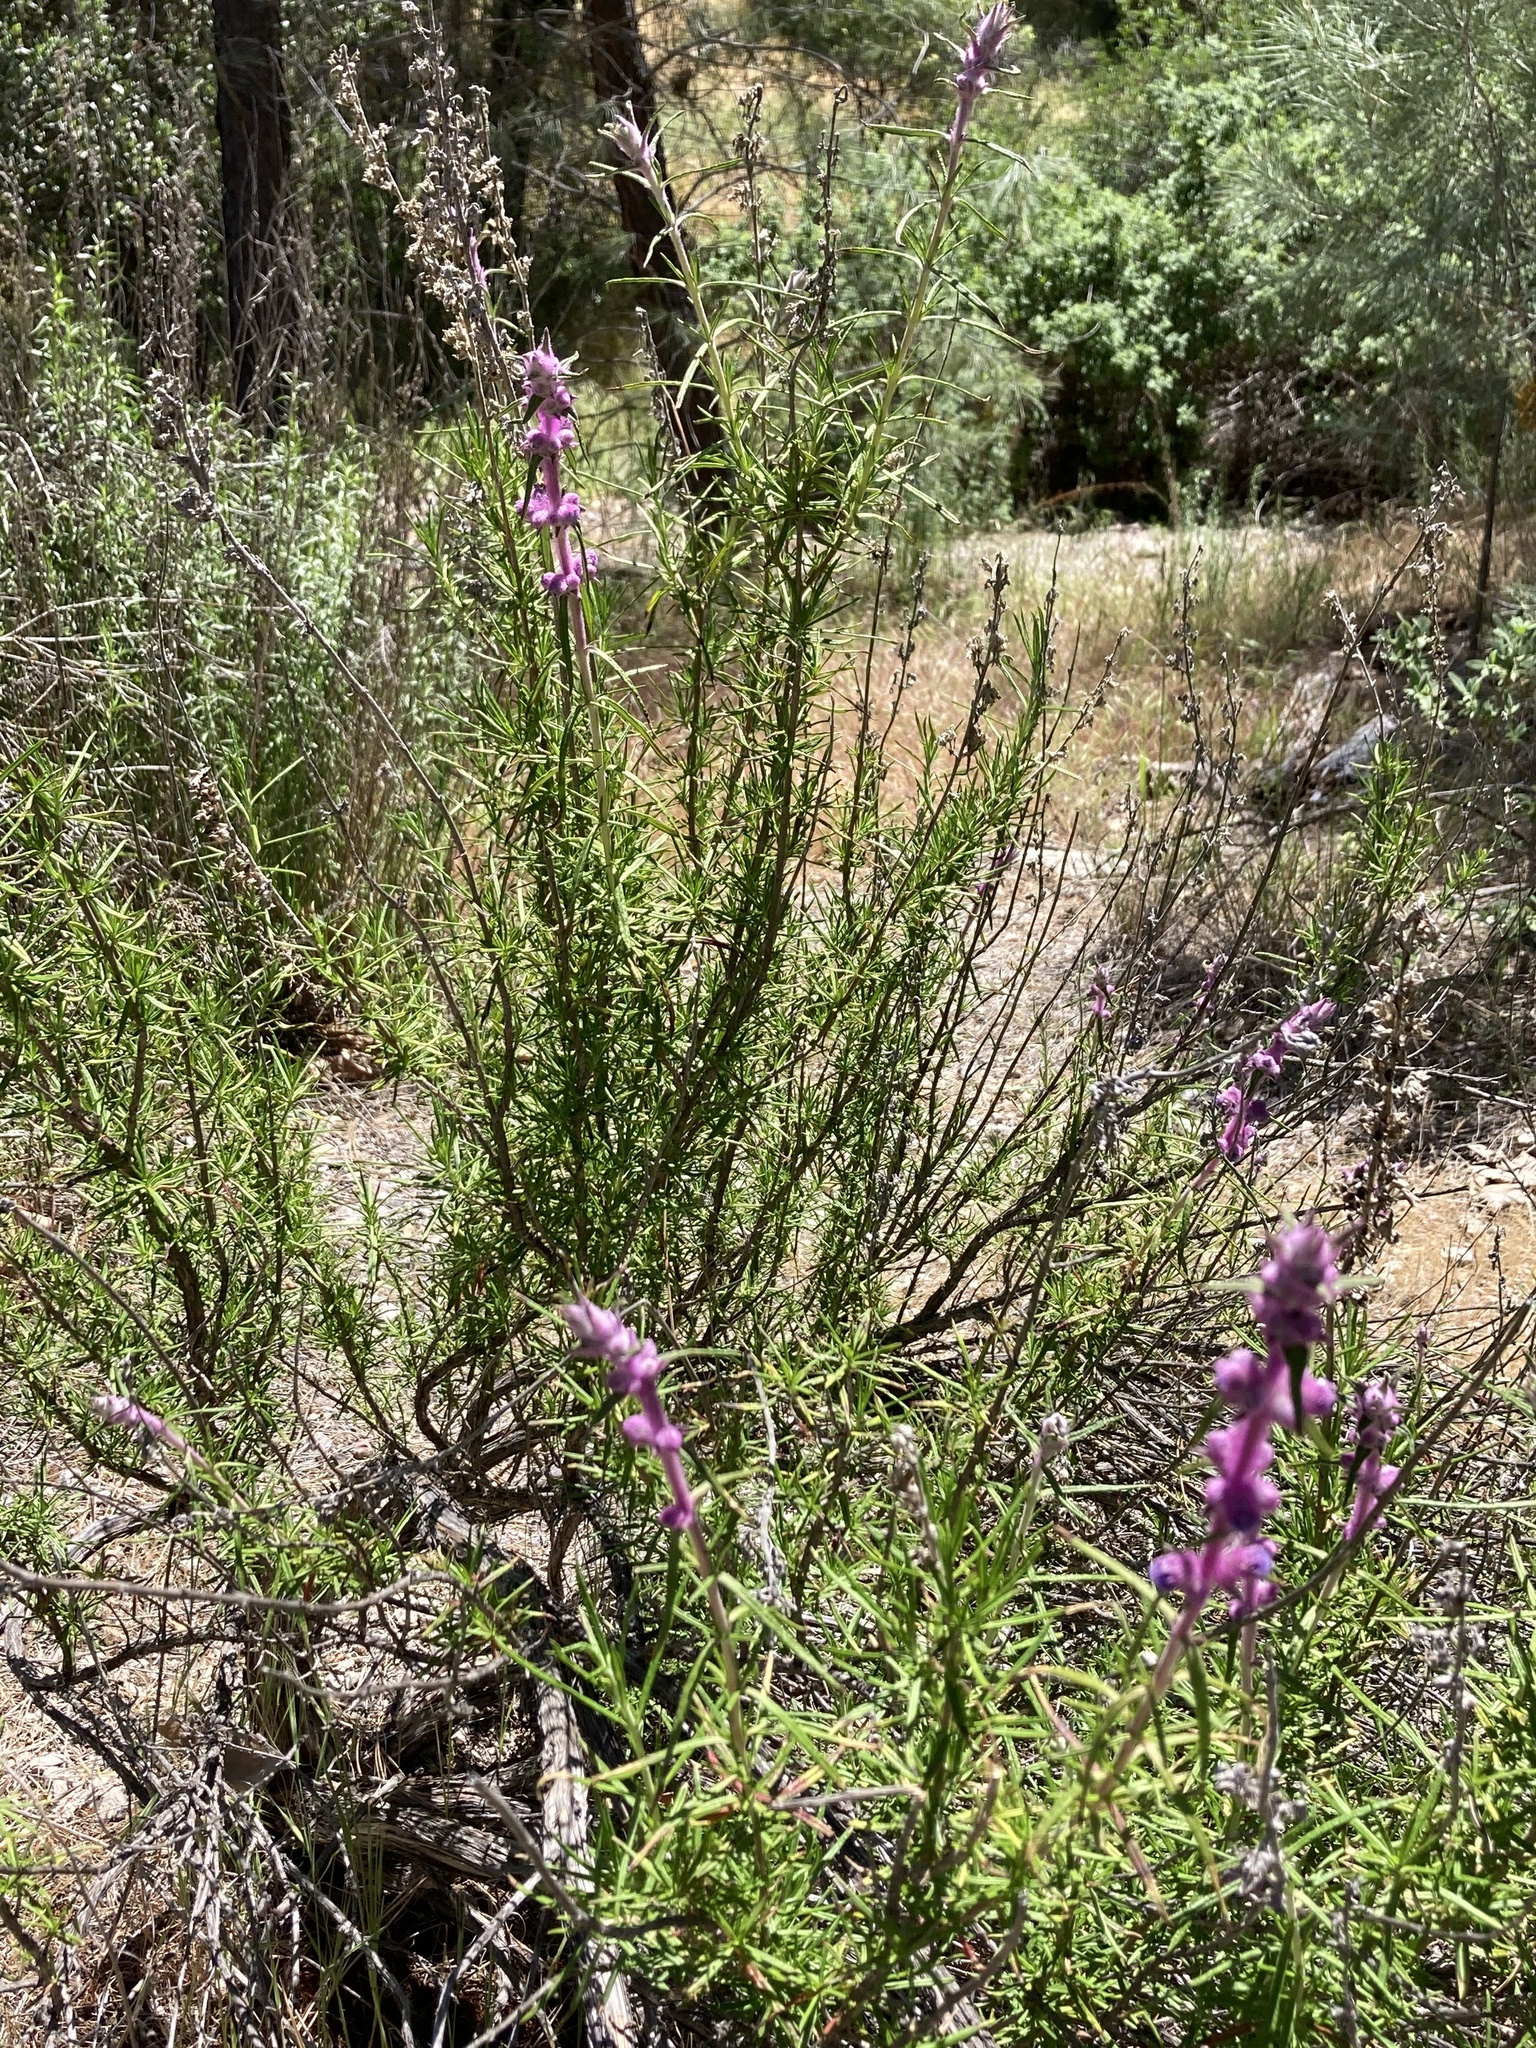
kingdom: Plantae
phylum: Tracheophyta
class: Magnoliopsida
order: Lamiales
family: Lamiaceae
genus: Trichostema
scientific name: Trichostema lanatum
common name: Woolly bluecurls
